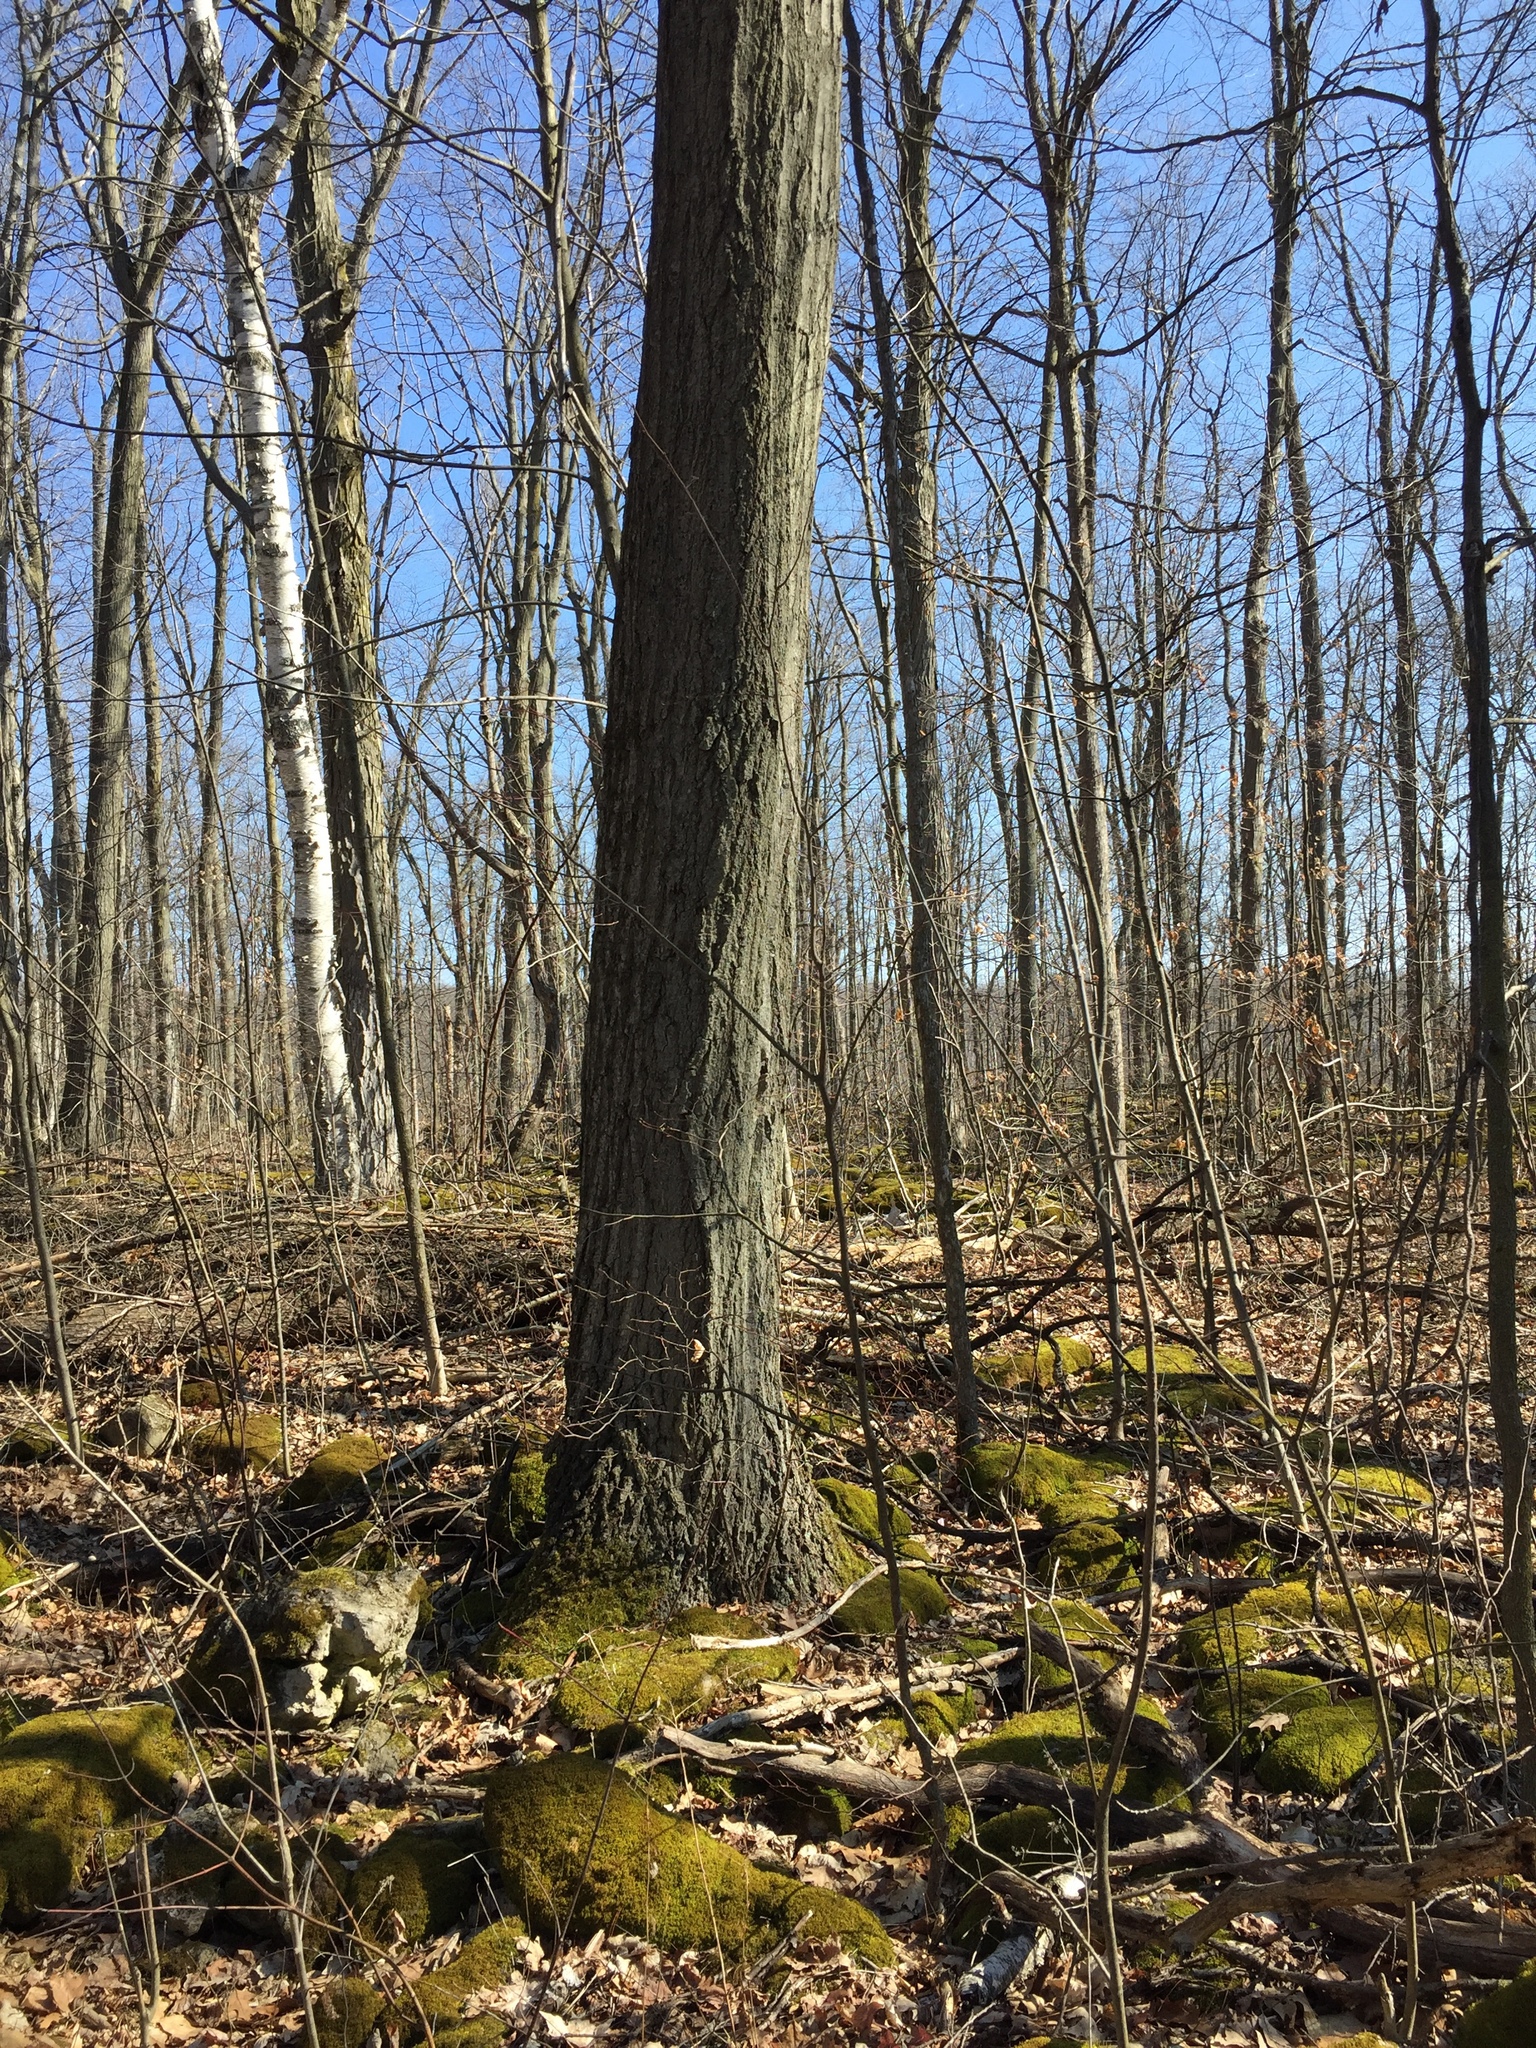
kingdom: Plantae
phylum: Tracheophyta
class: Magnoliopsida
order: Fagales
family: Fagaceae
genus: Quercus
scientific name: Quercus rubra
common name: Red oak
